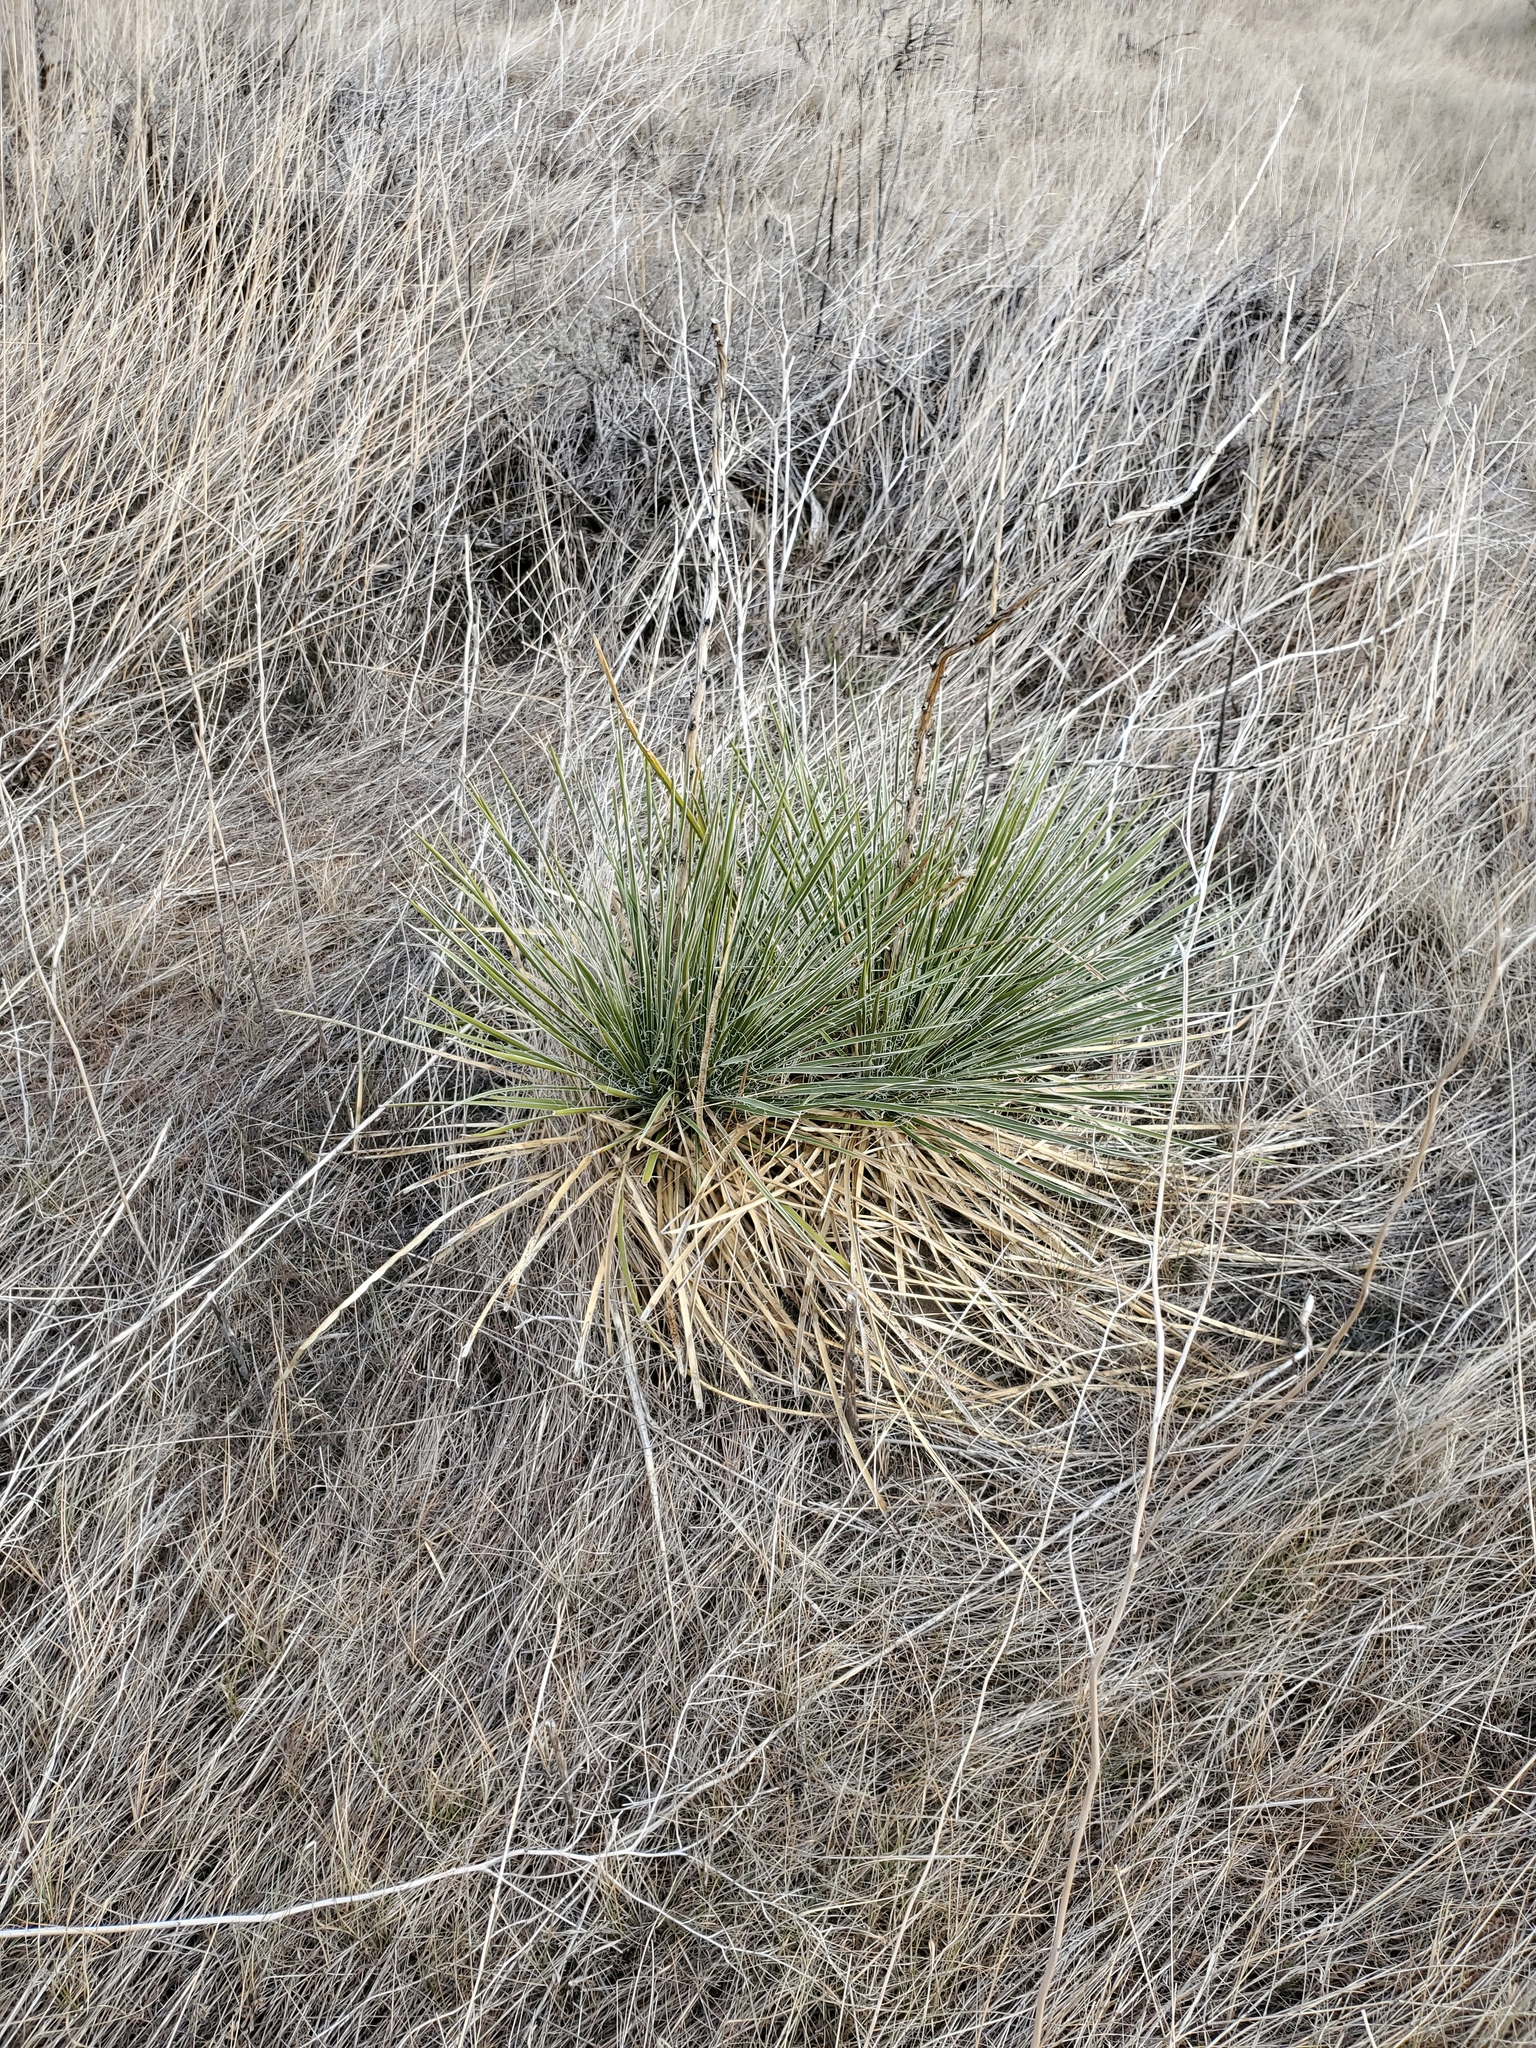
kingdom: Plantae
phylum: Tracheophyta
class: Liliopsida
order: Asparagales
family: Asparagaceae
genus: Yucca
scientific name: Yucca glauca
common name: Great plains yucca
